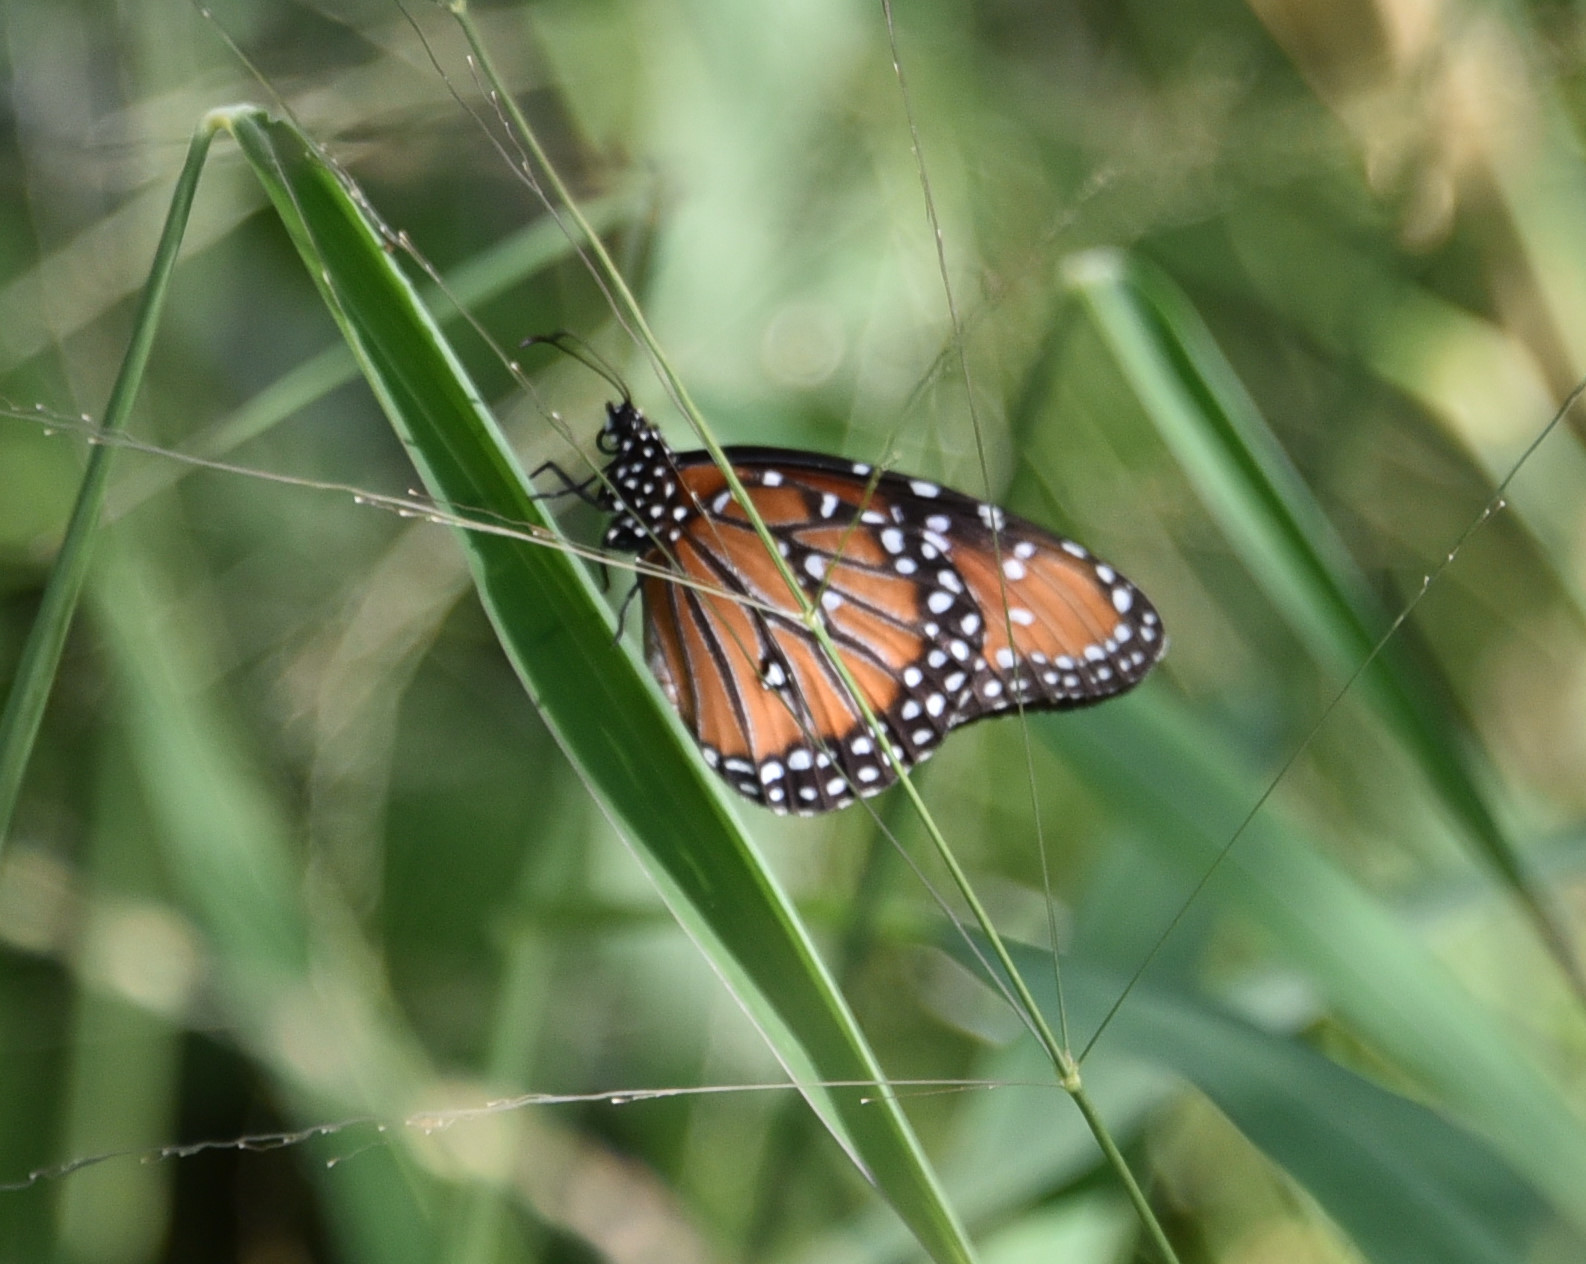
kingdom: Animalia
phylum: Arthropoda
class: Insecta
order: Lepidoptera
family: Nymphalidae
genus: Danaus
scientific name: Danaus gilippus
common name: Queen
